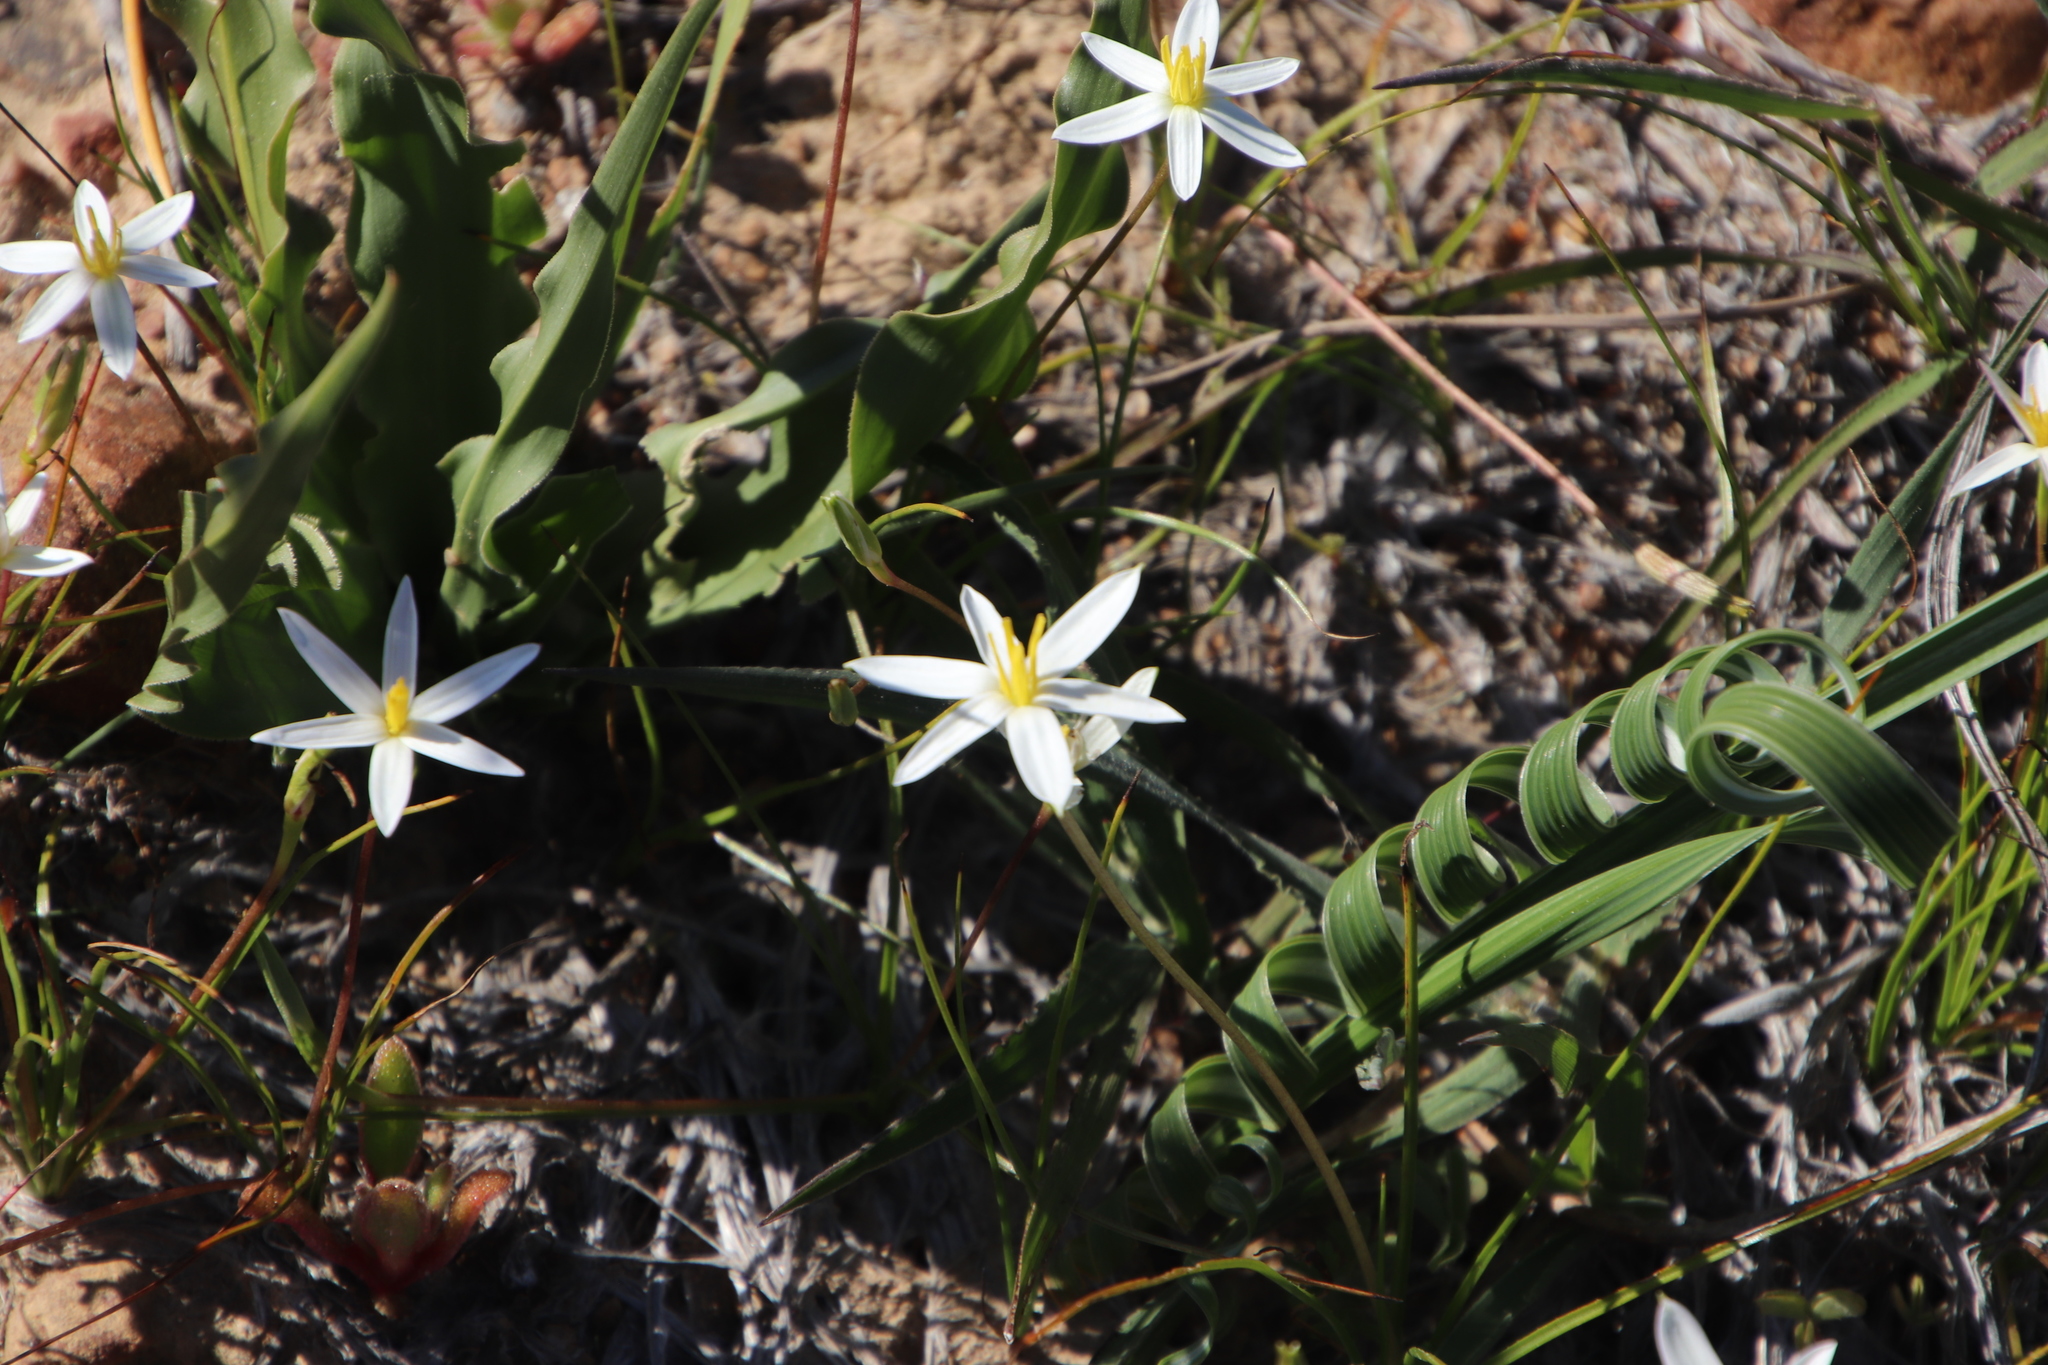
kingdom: Plantae
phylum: Tracheophyta
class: Liliopsida
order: Asparagales
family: Hypoxidaceae
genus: Pauridia
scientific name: Pauridia serrata
